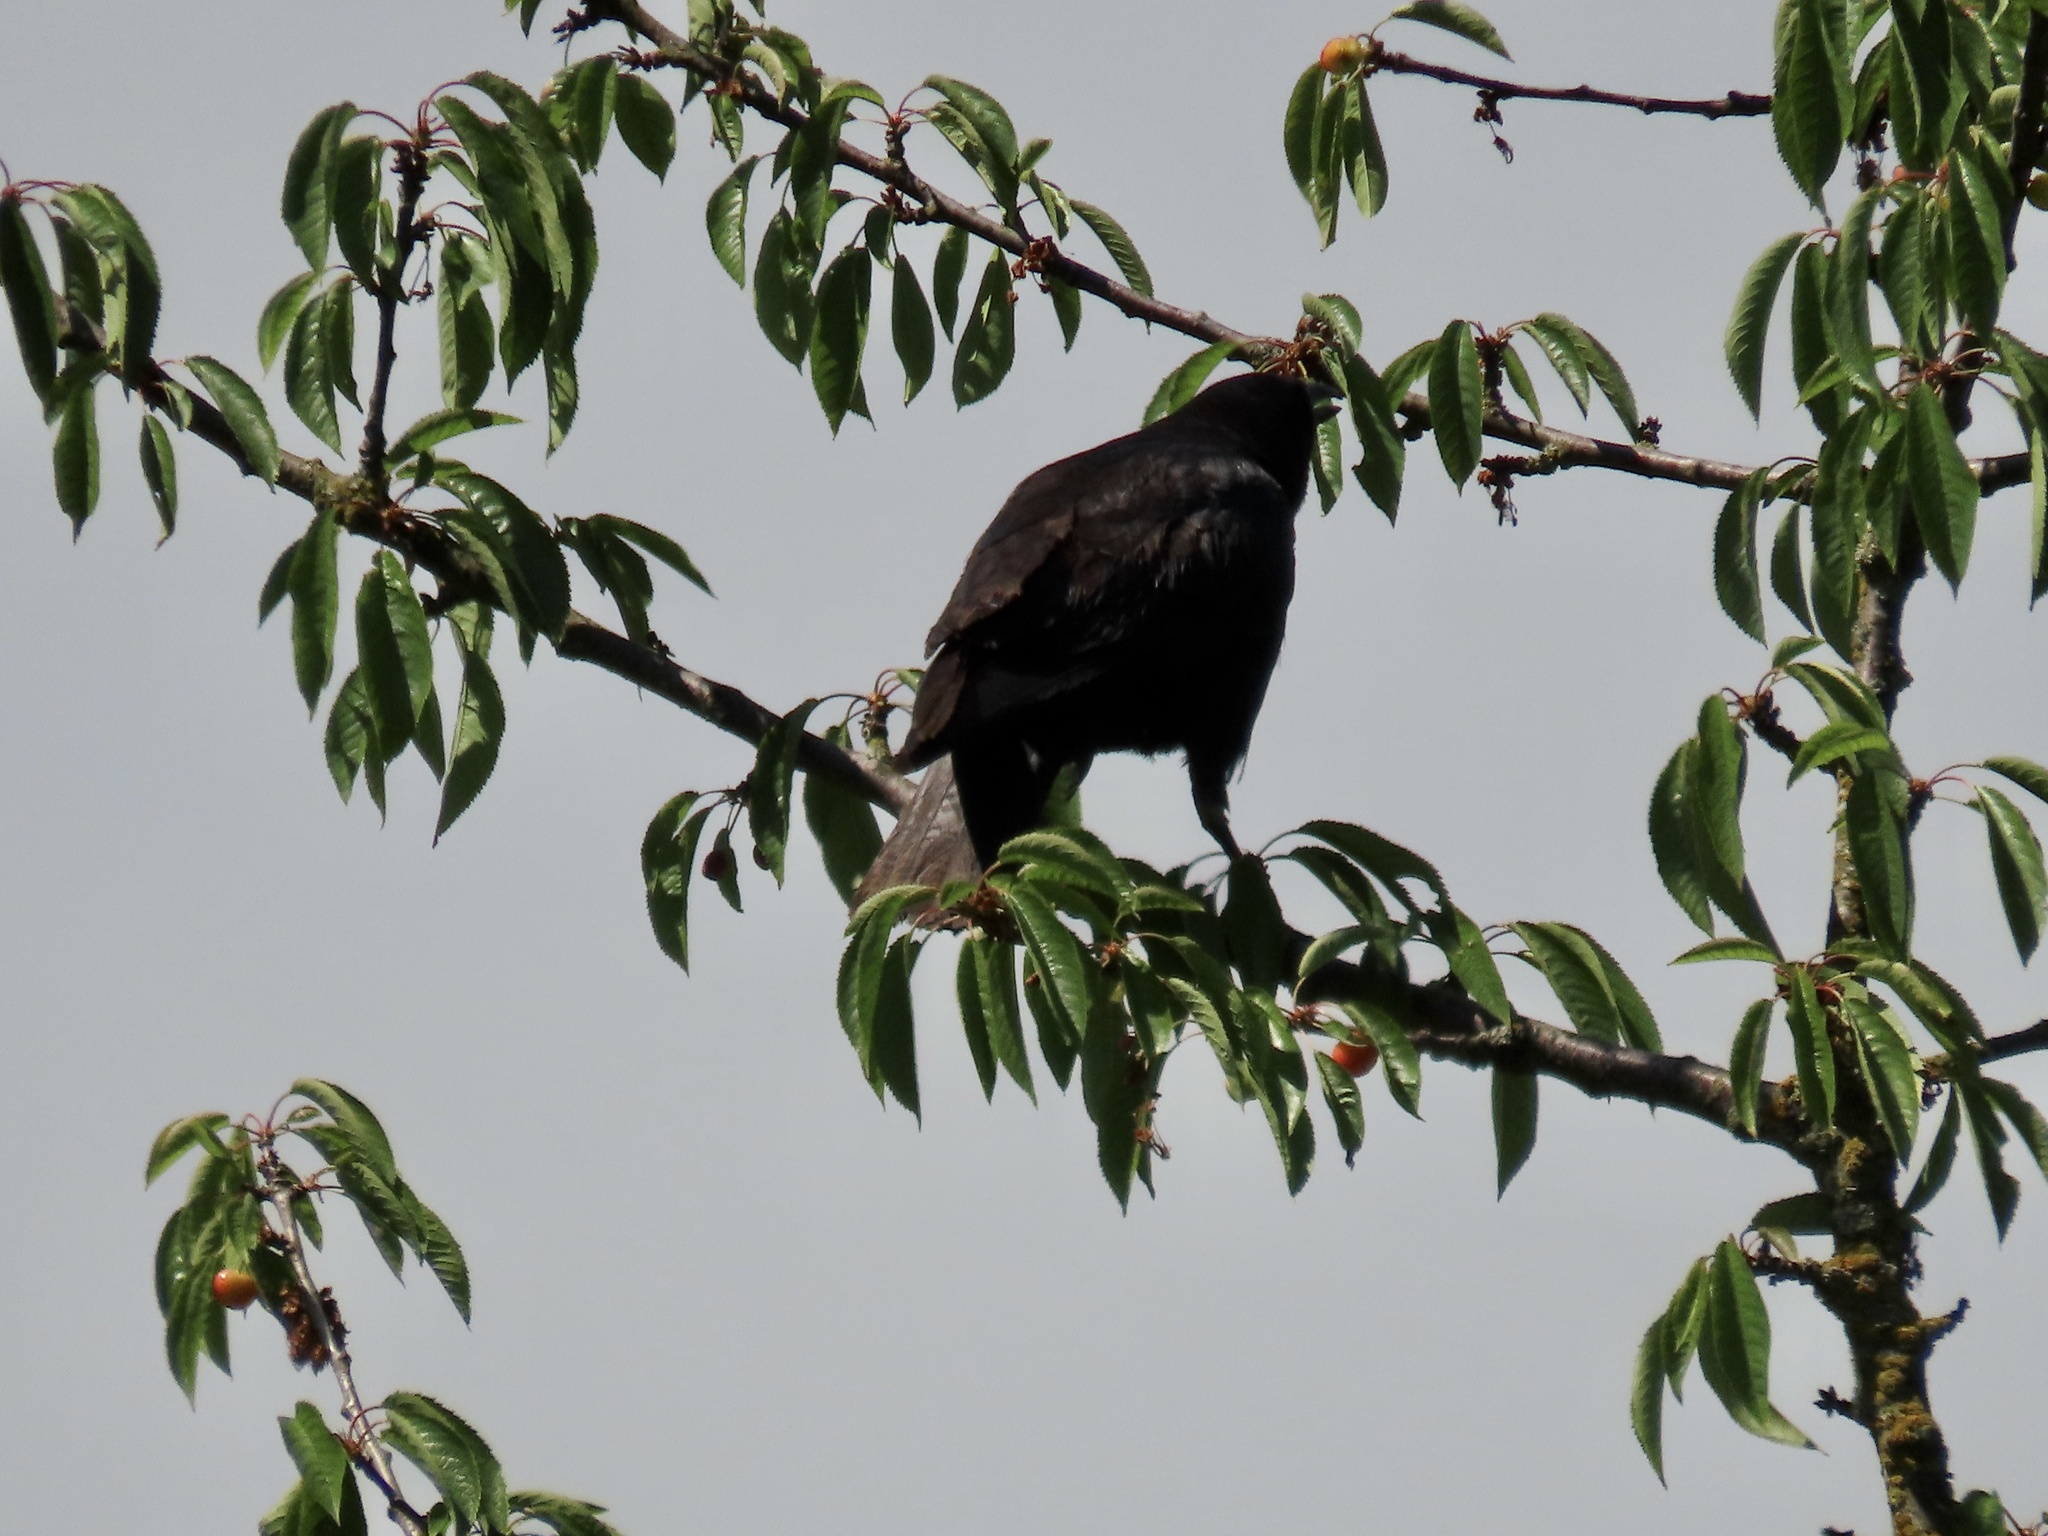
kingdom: Animalia
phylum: Chordata
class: Aves
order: Passeriformes
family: Corvidae
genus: Corvus
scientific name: Corvus brachyrhynchos
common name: American crow
